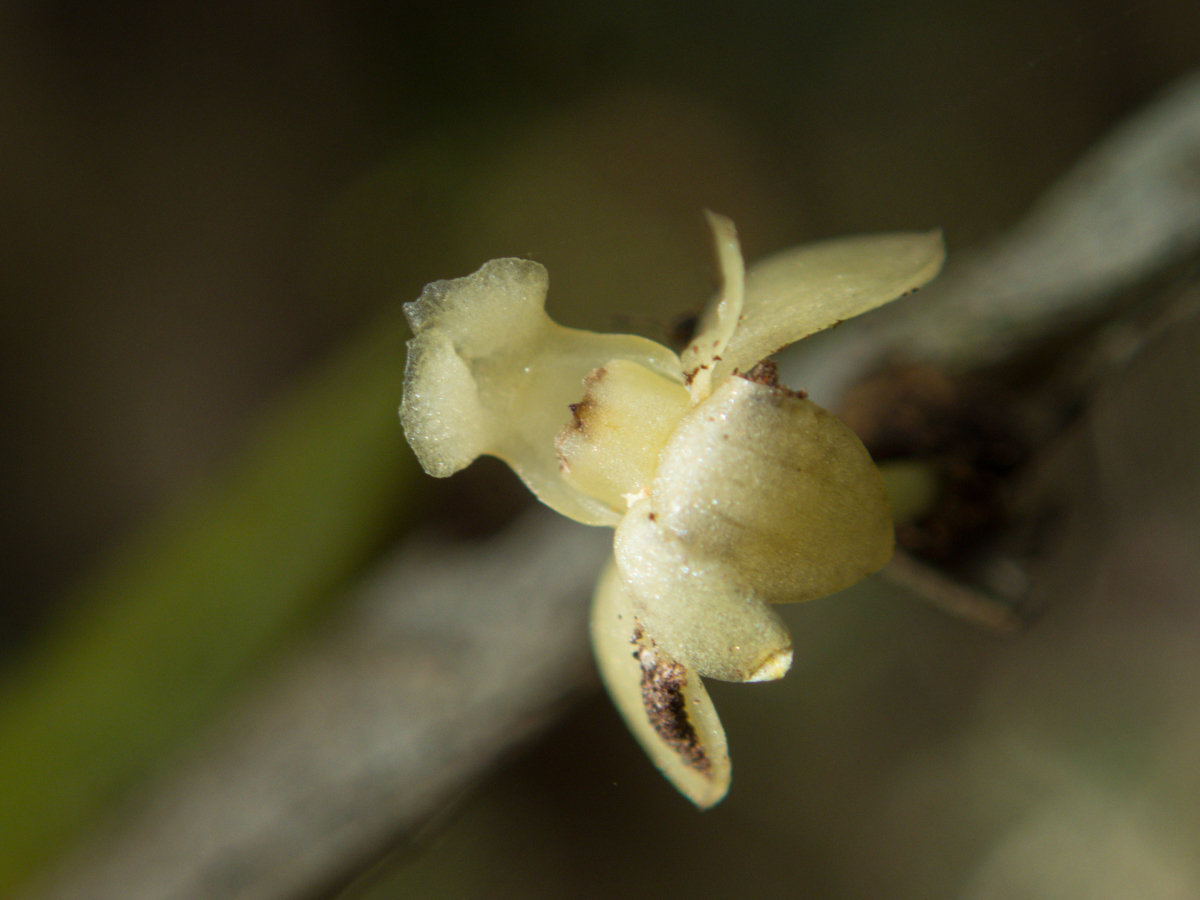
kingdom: Plantae
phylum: Tracheophyta
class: Liliopsida
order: Asparagales
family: Orchidaceae
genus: Dendrobium
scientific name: Dendrobium aloifolium
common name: Aloe-like dendrobium
